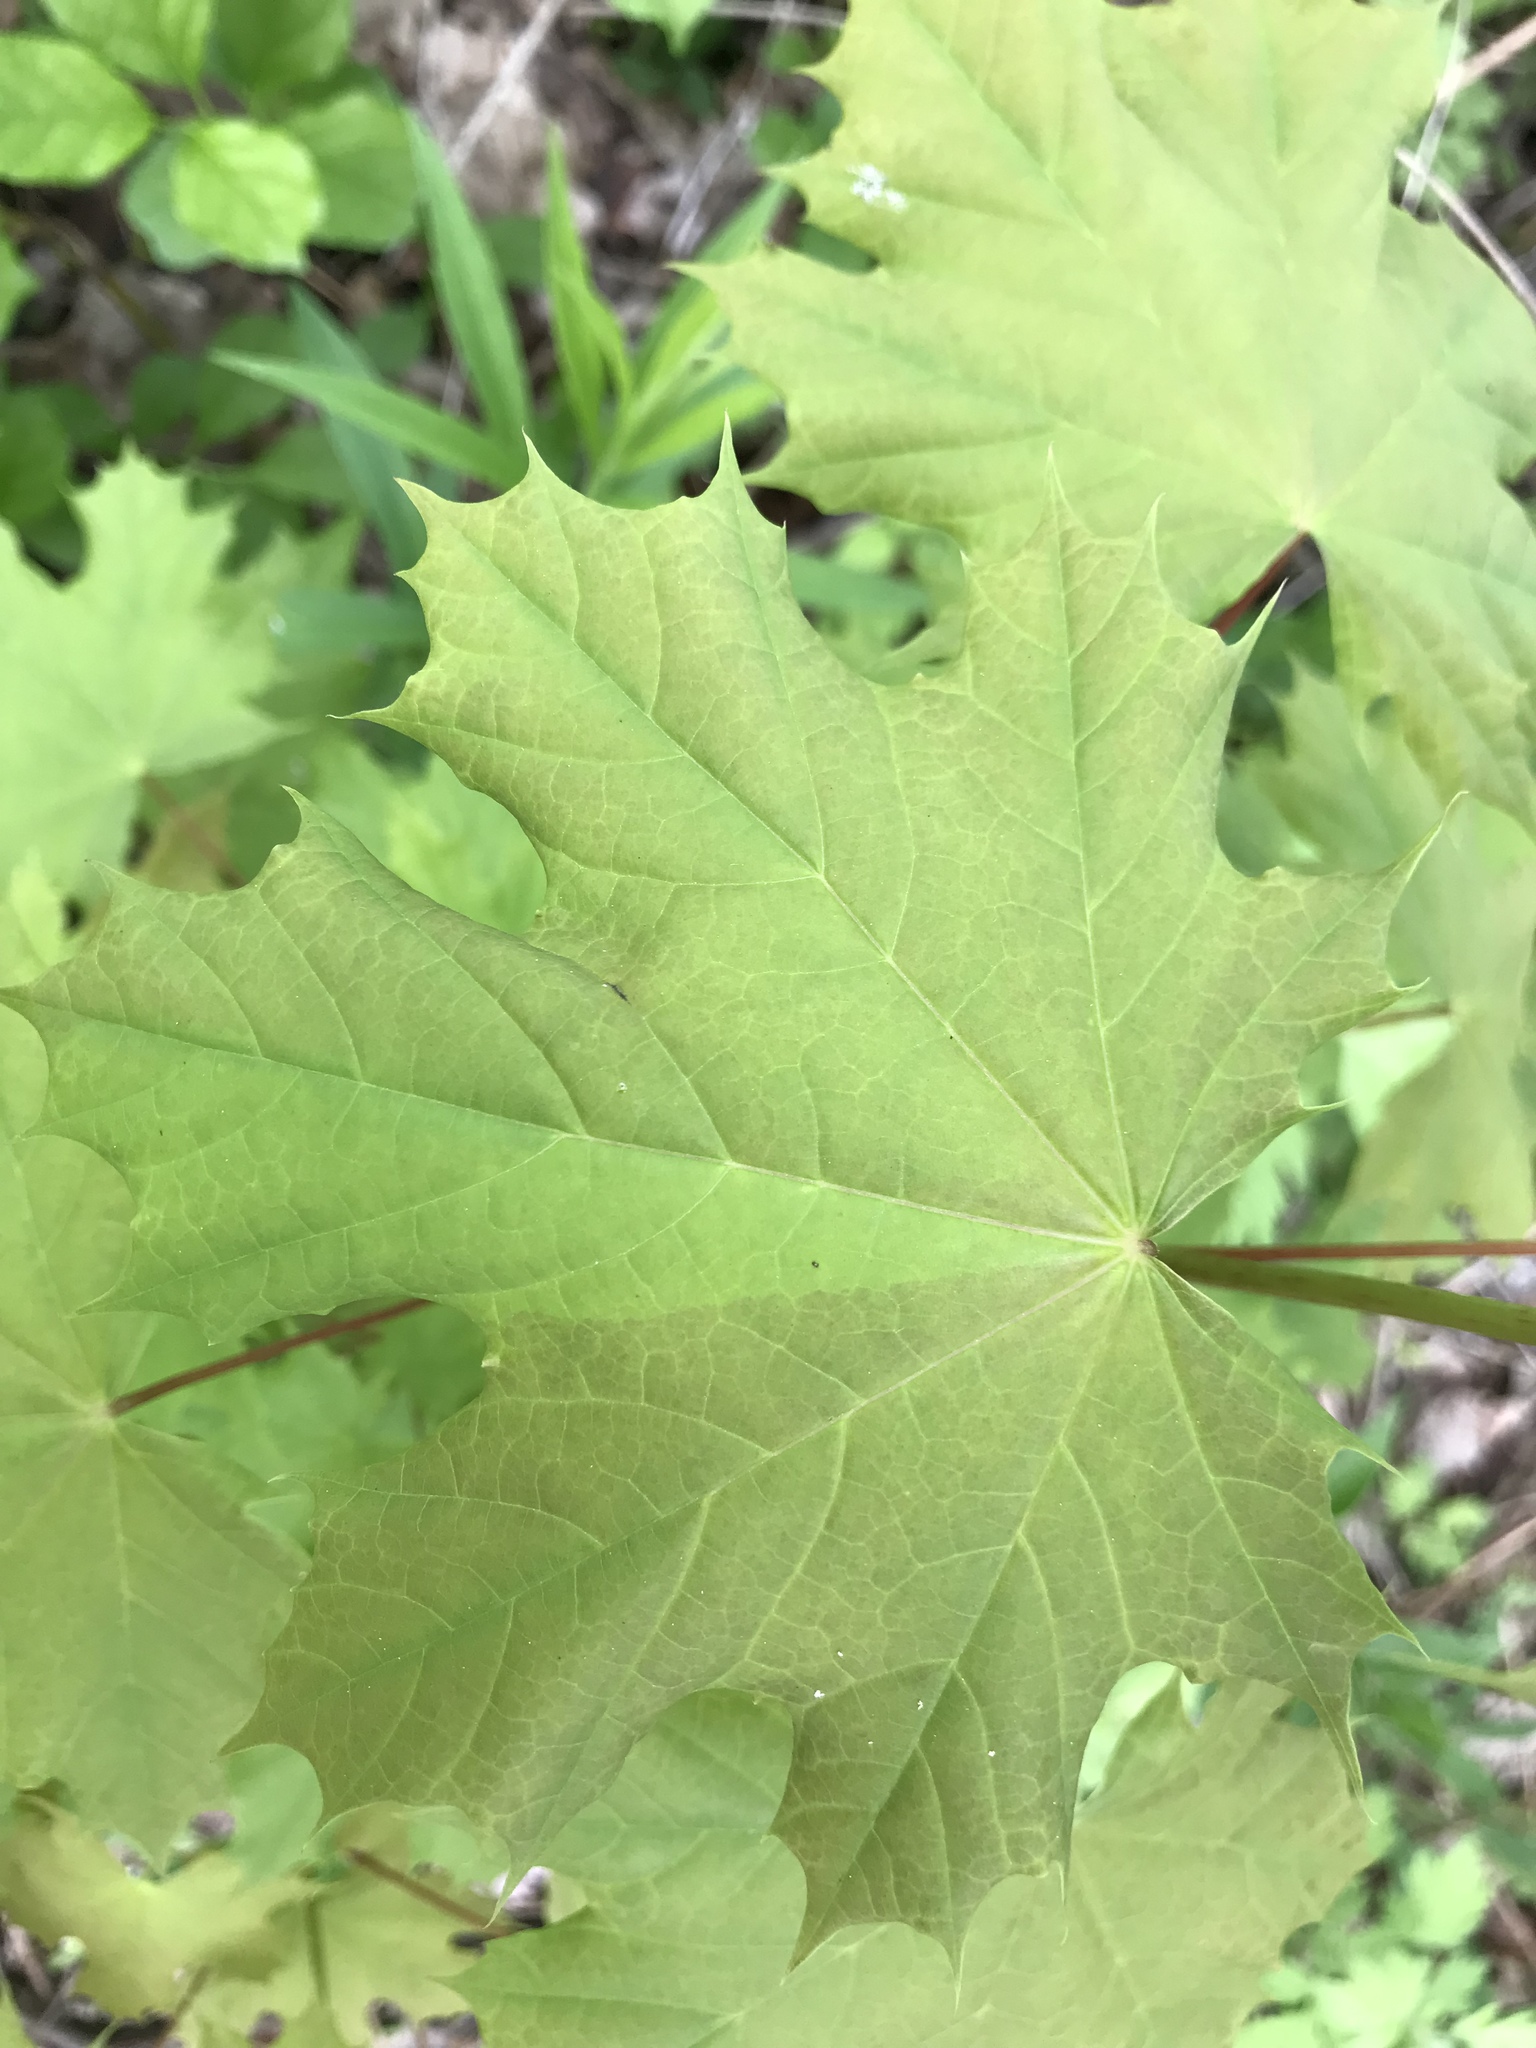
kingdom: Plantae
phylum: Tracheophyta
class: Magnoliopsida
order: Sapindales
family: Sapindaceae
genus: Acer
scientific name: Acer platanoides
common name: Norway maple
